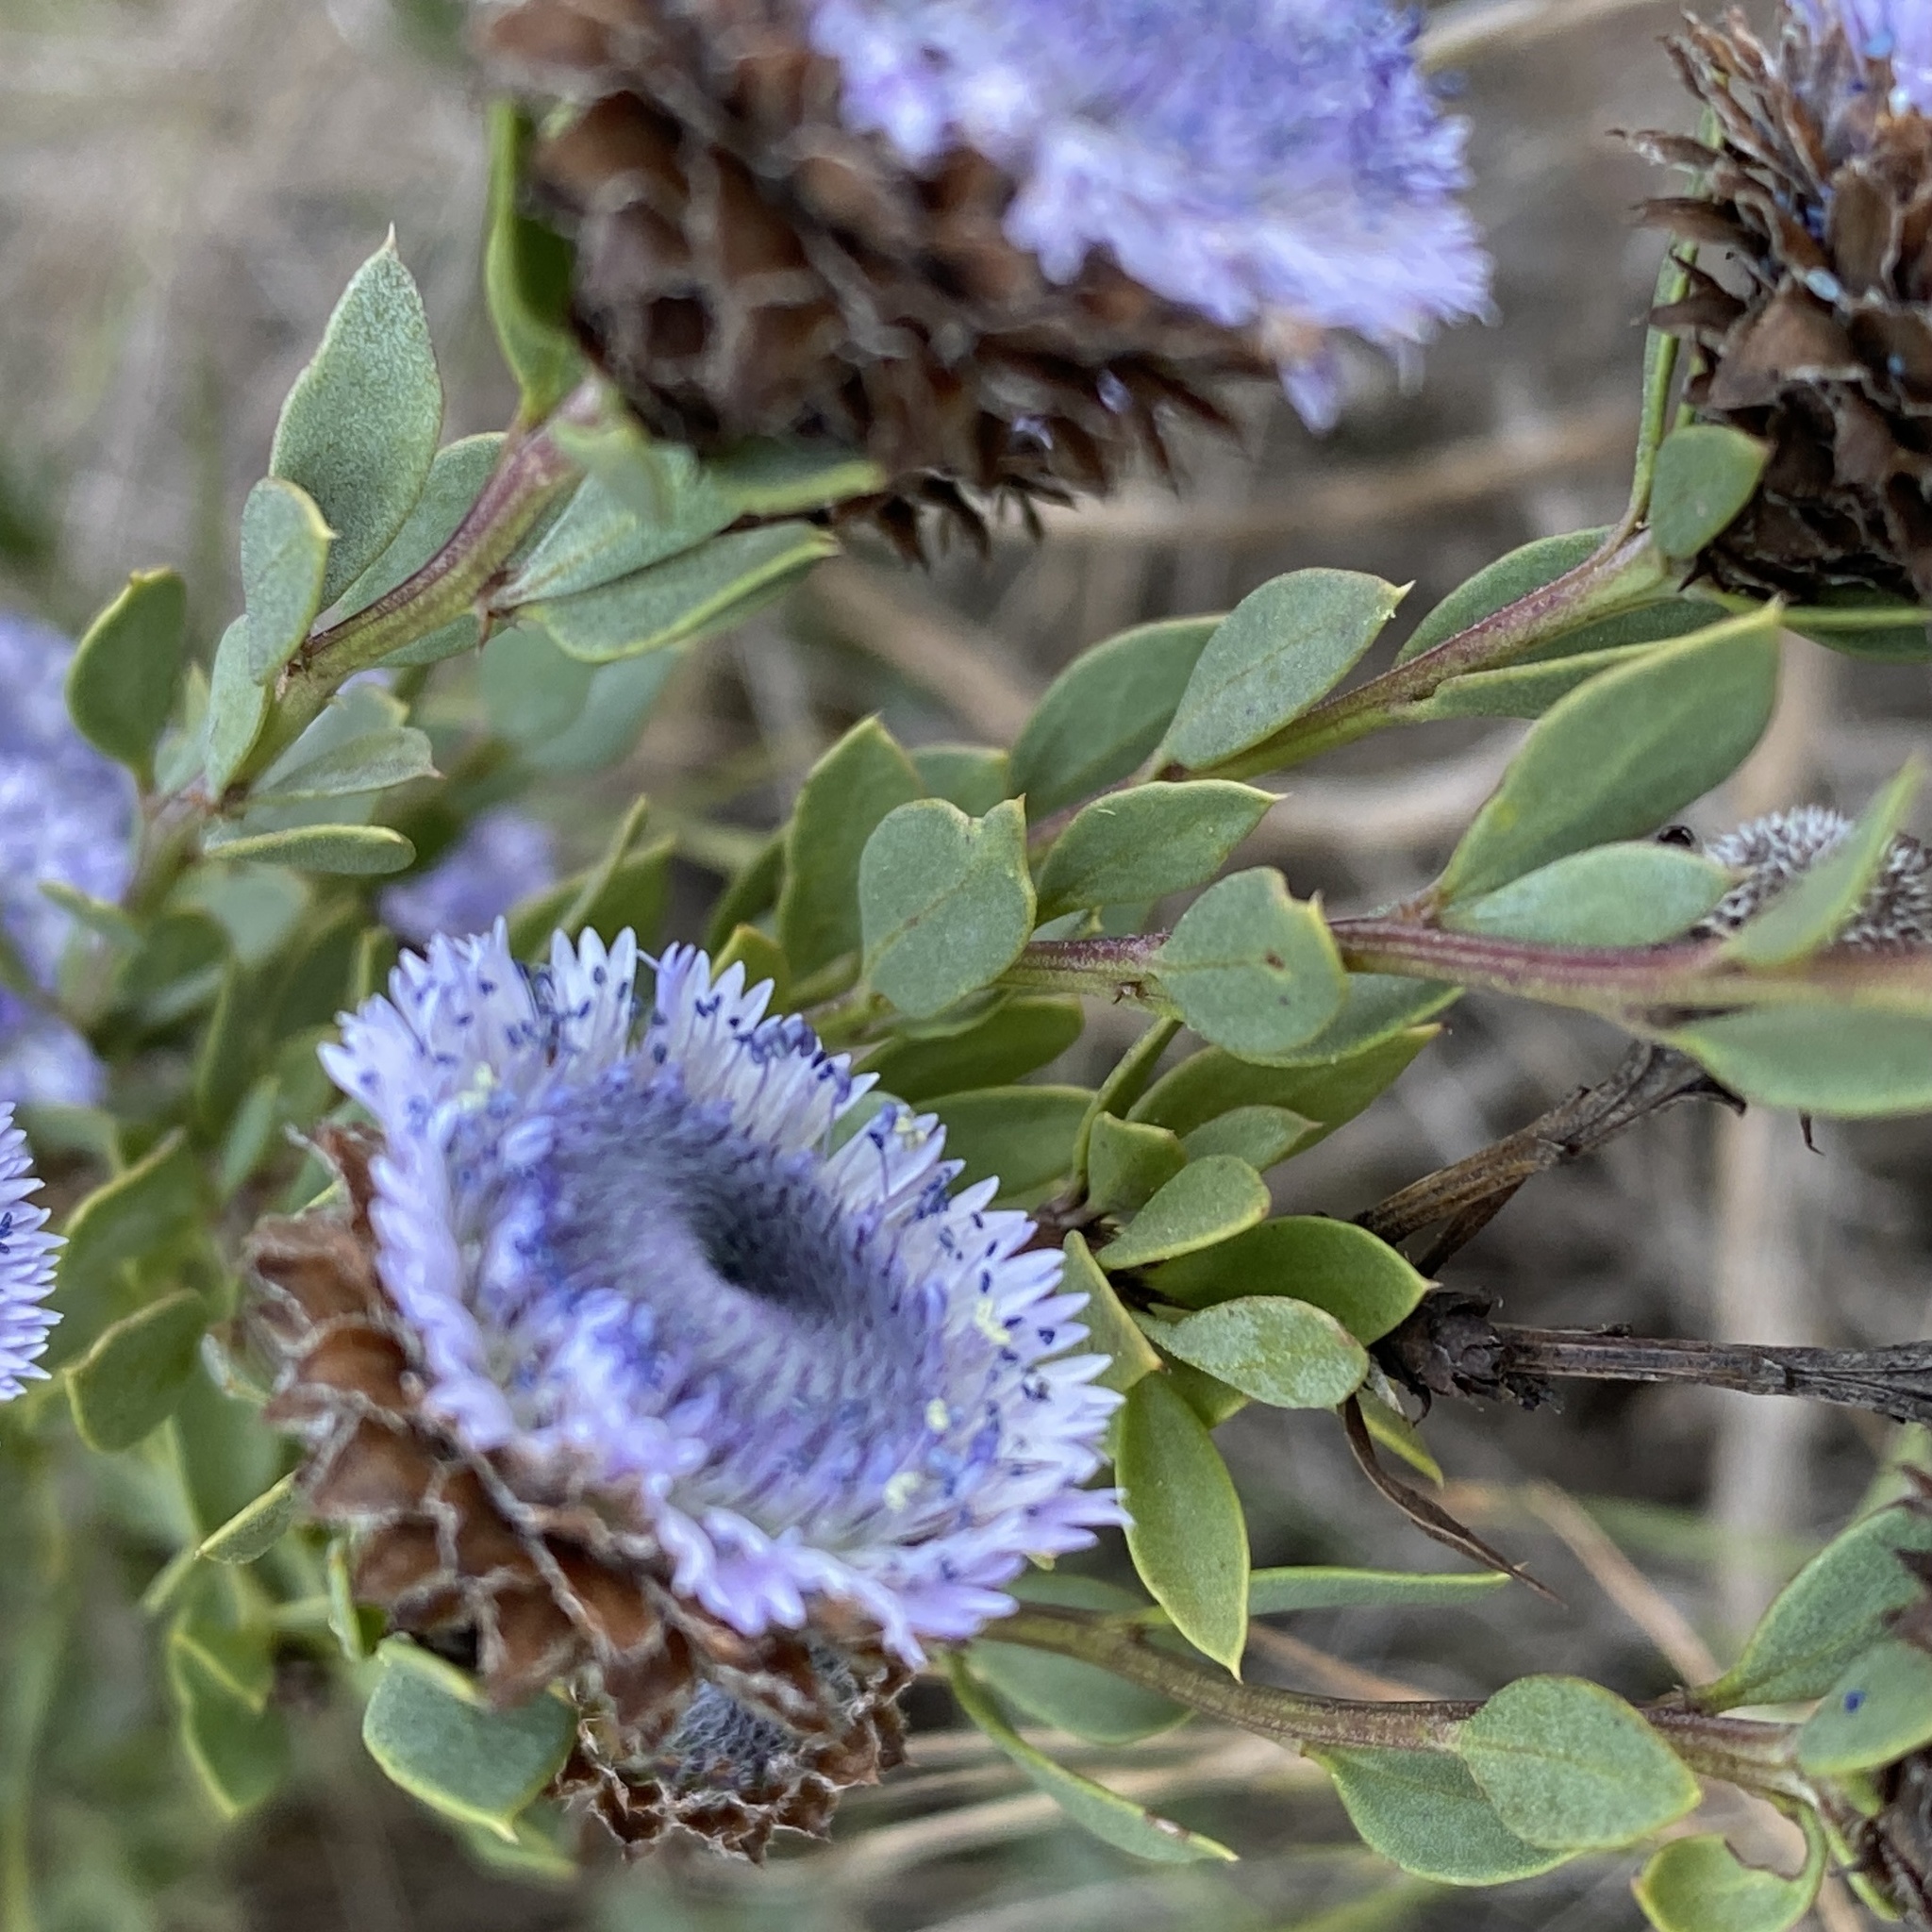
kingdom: Plantae
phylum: Tracheophyta
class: Magnoliopsida
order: Lamiales
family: Plantaginaceae
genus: Globularia
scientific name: Globularia alypum
